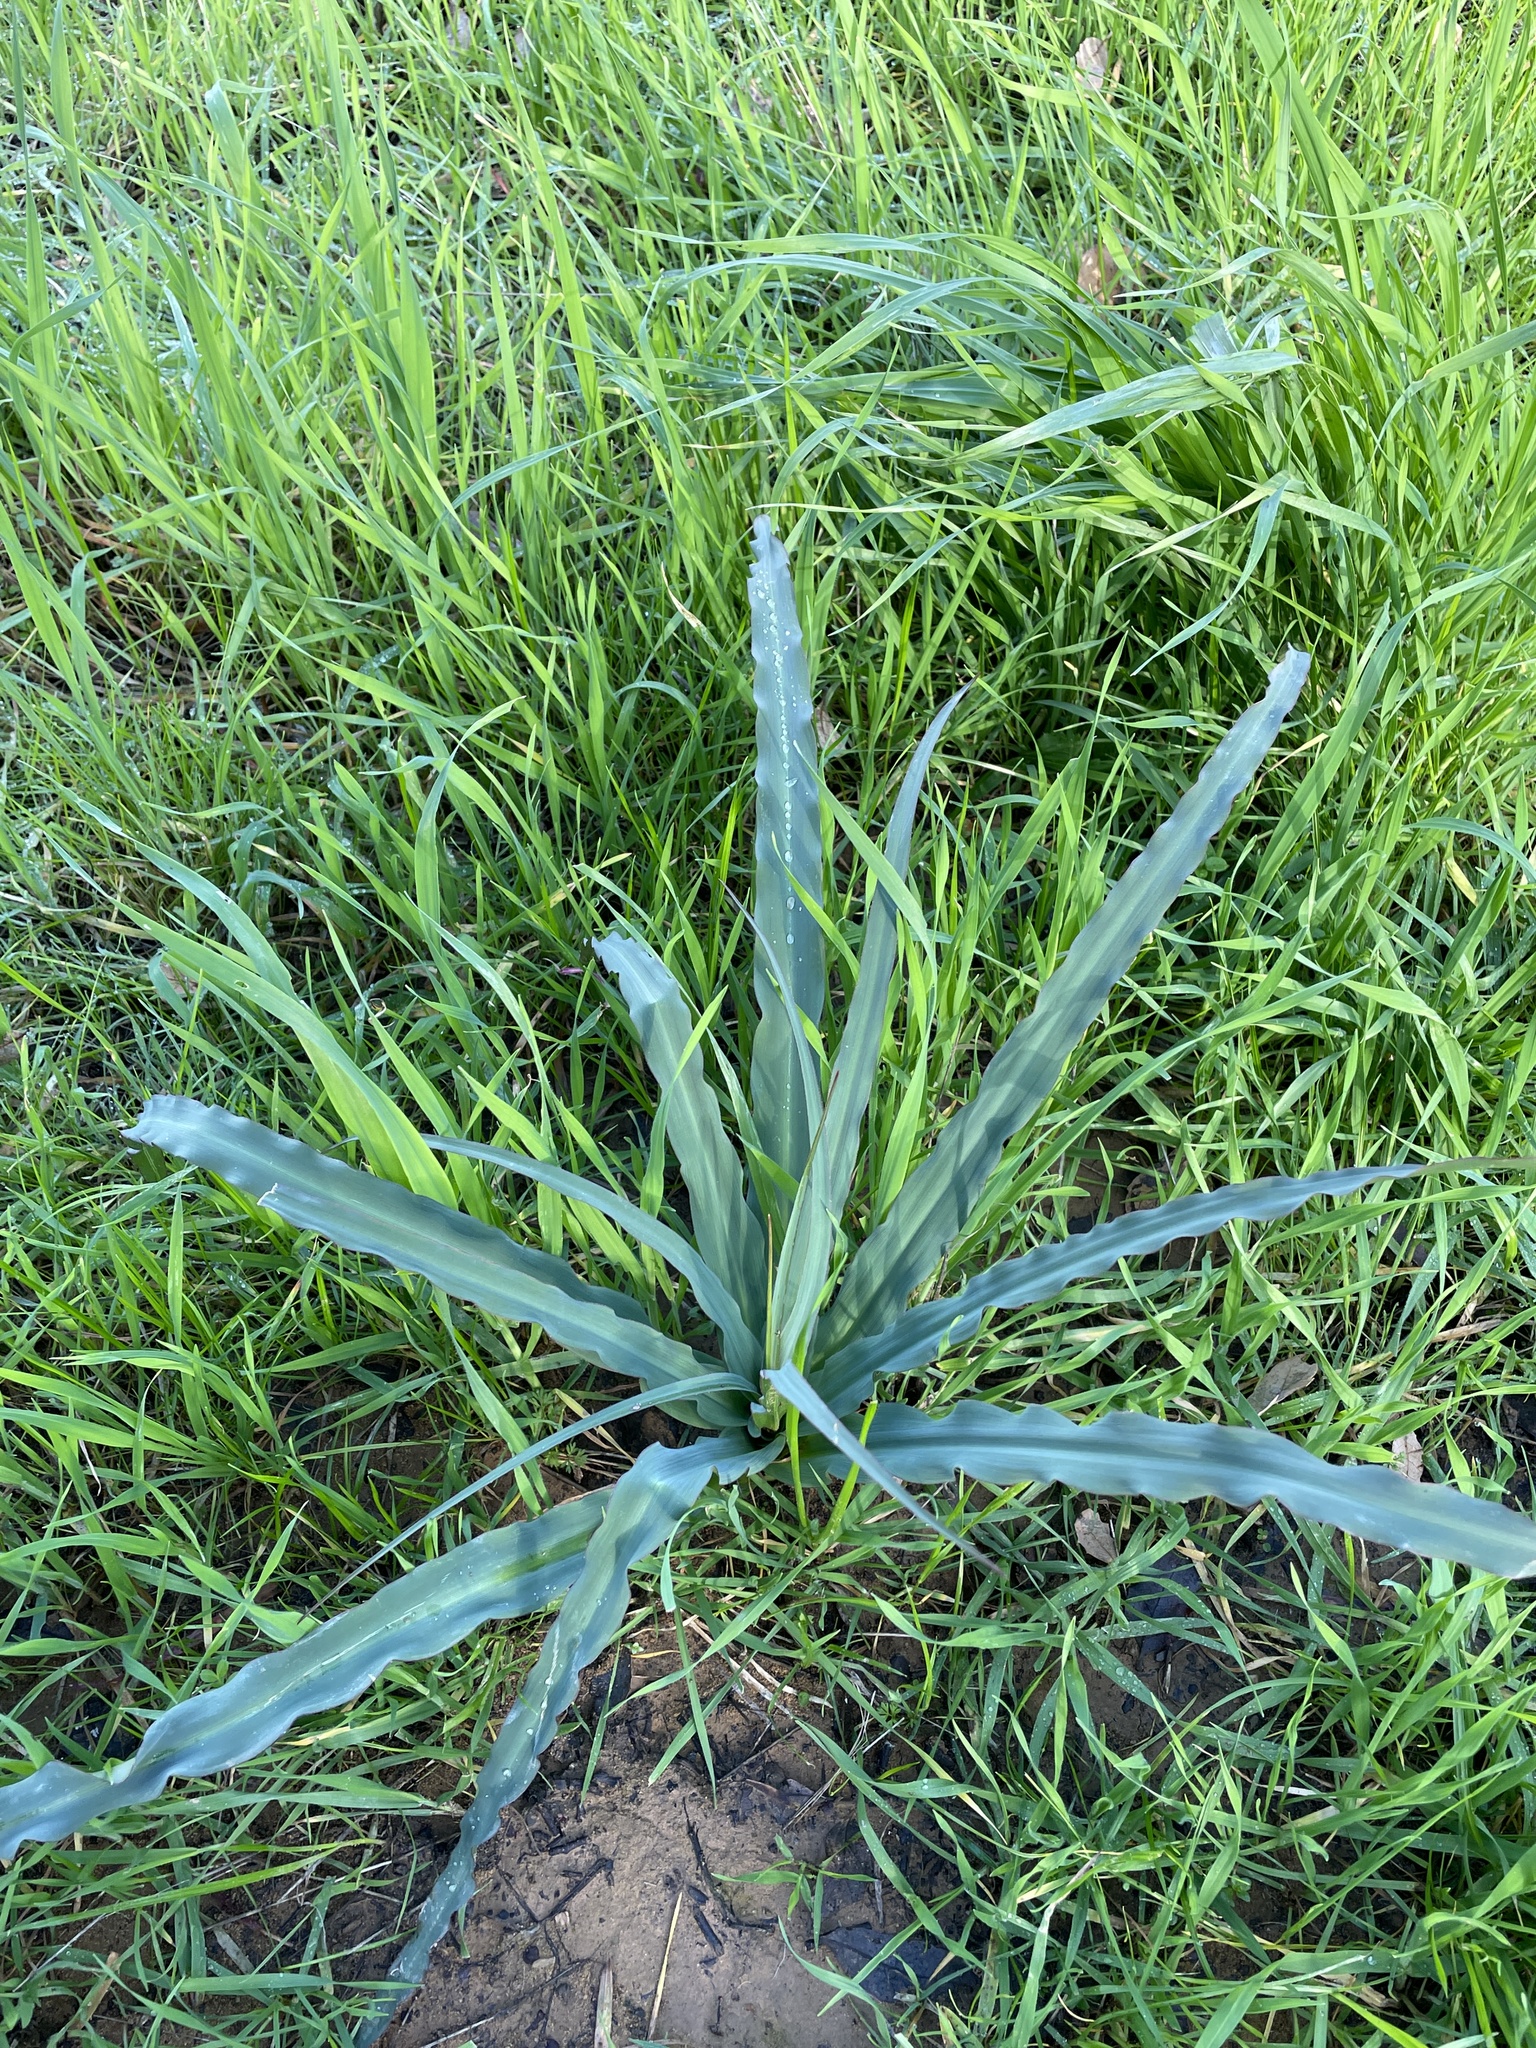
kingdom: Plantae
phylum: Tracheophyta
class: Liliopsida
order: Asparagales
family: Asparagaceae
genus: Chlorogalum
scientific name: Chlorogalum pomeridianum
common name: Amole
